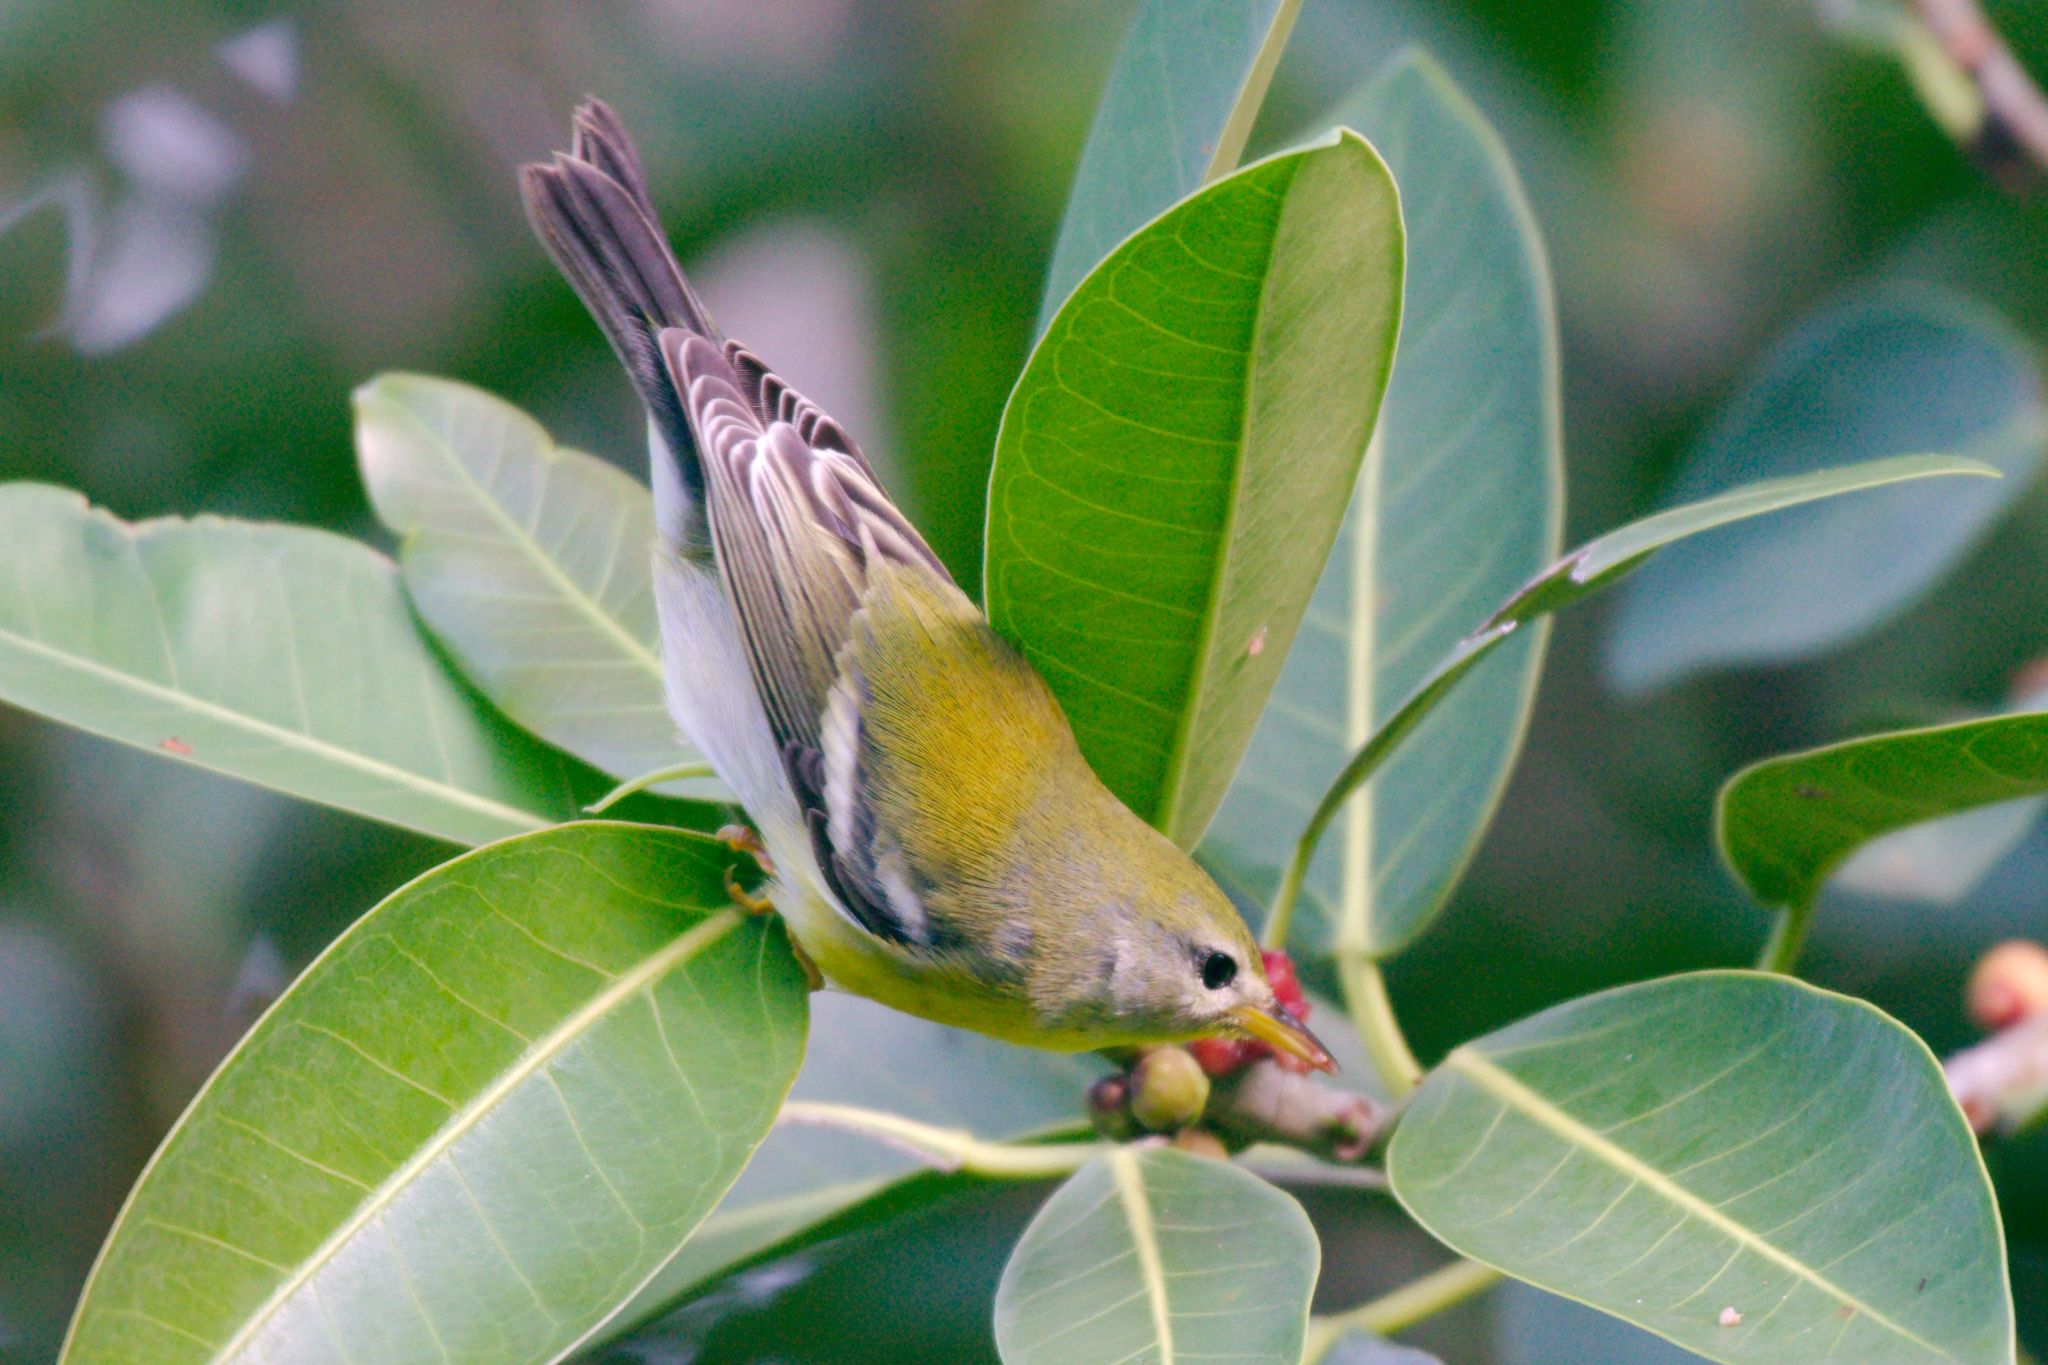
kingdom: Animalia
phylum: Chordata
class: Aves
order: Passeriformes
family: Parulidae
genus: Setophaga
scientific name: Setophaga americana
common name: Northern parula
